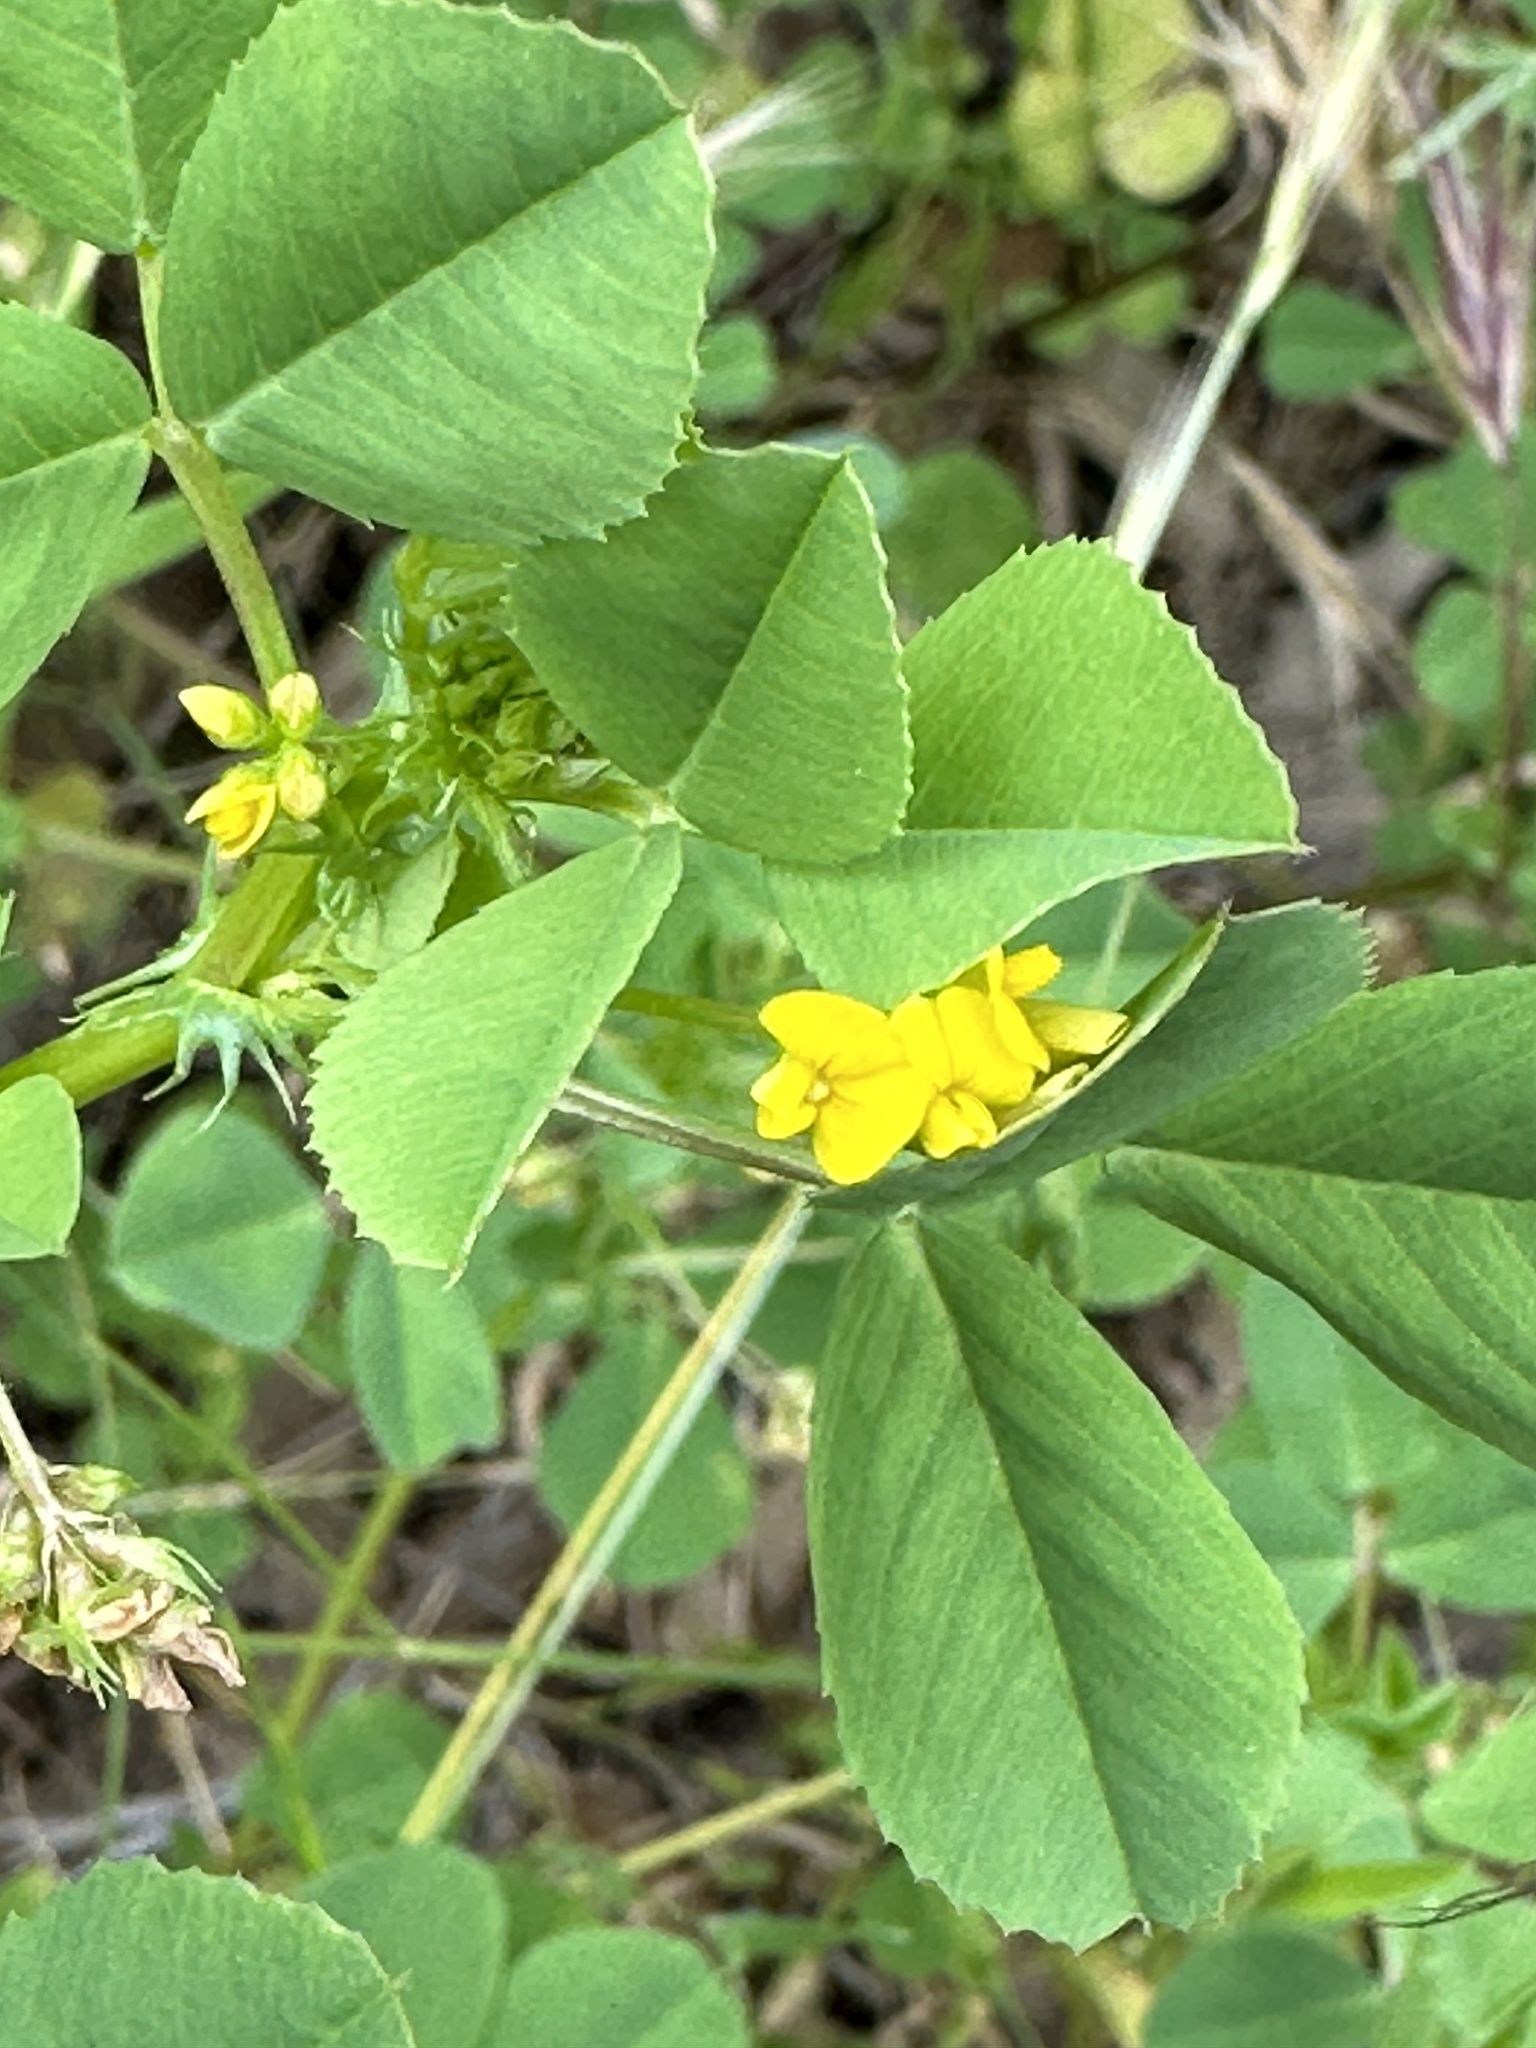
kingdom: Plantae
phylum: Tracheophyta
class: Magnoliopsida
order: Fabales
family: Fabaceae
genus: Medicago
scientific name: Medicago polymorpha
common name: Burclover
